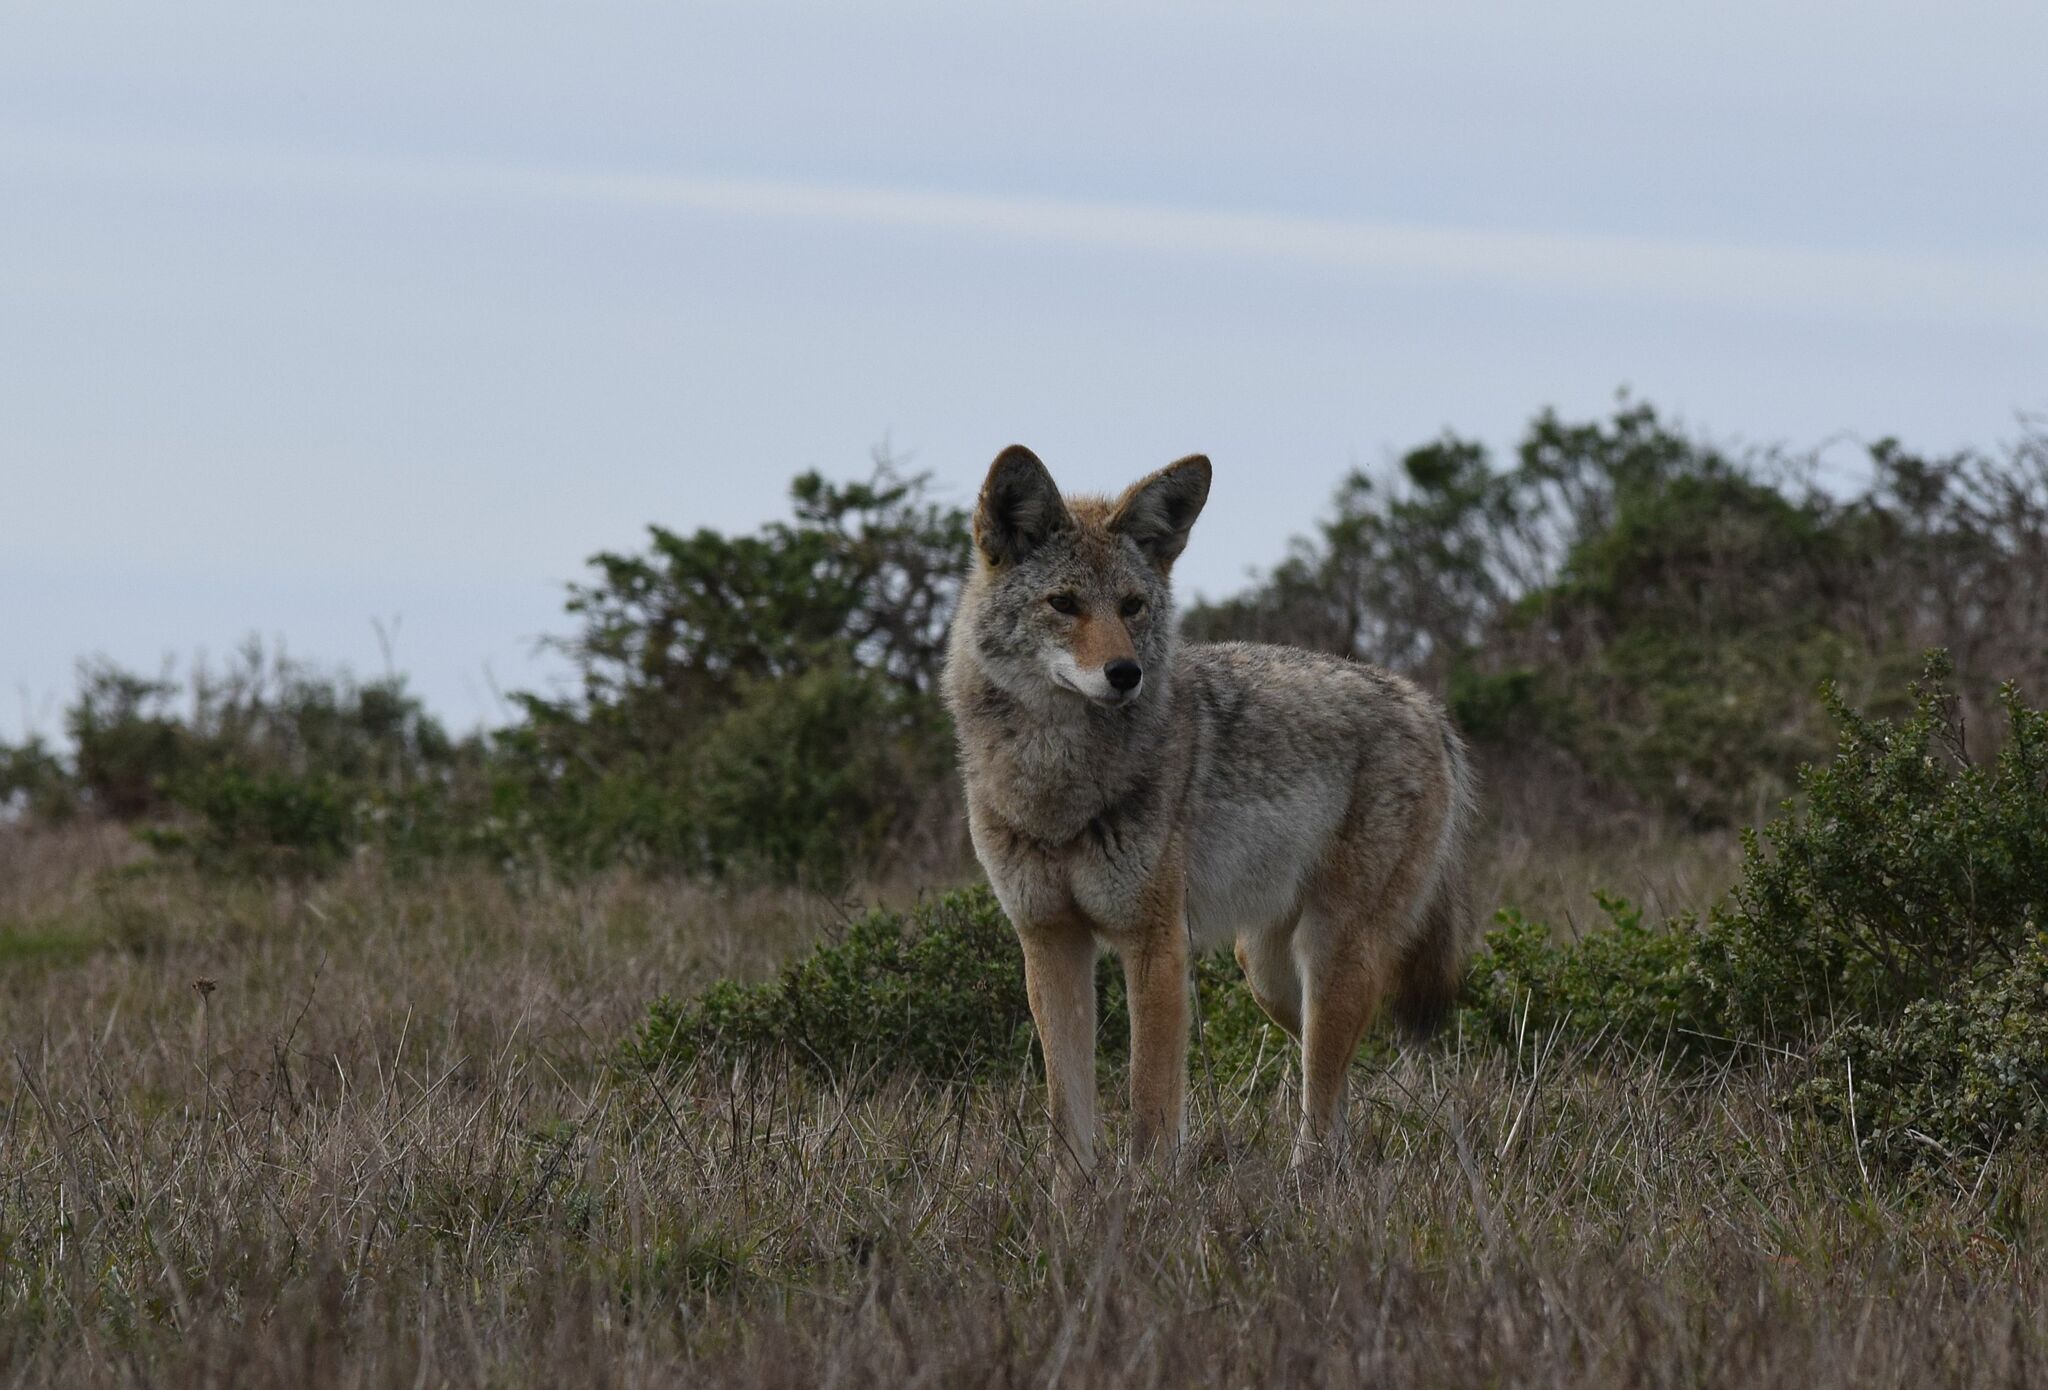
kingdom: Animalia
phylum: Chordata
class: Mammalia
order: Carnivora
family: Canidae
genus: Canis
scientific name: Canis latrans
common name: Coyote
